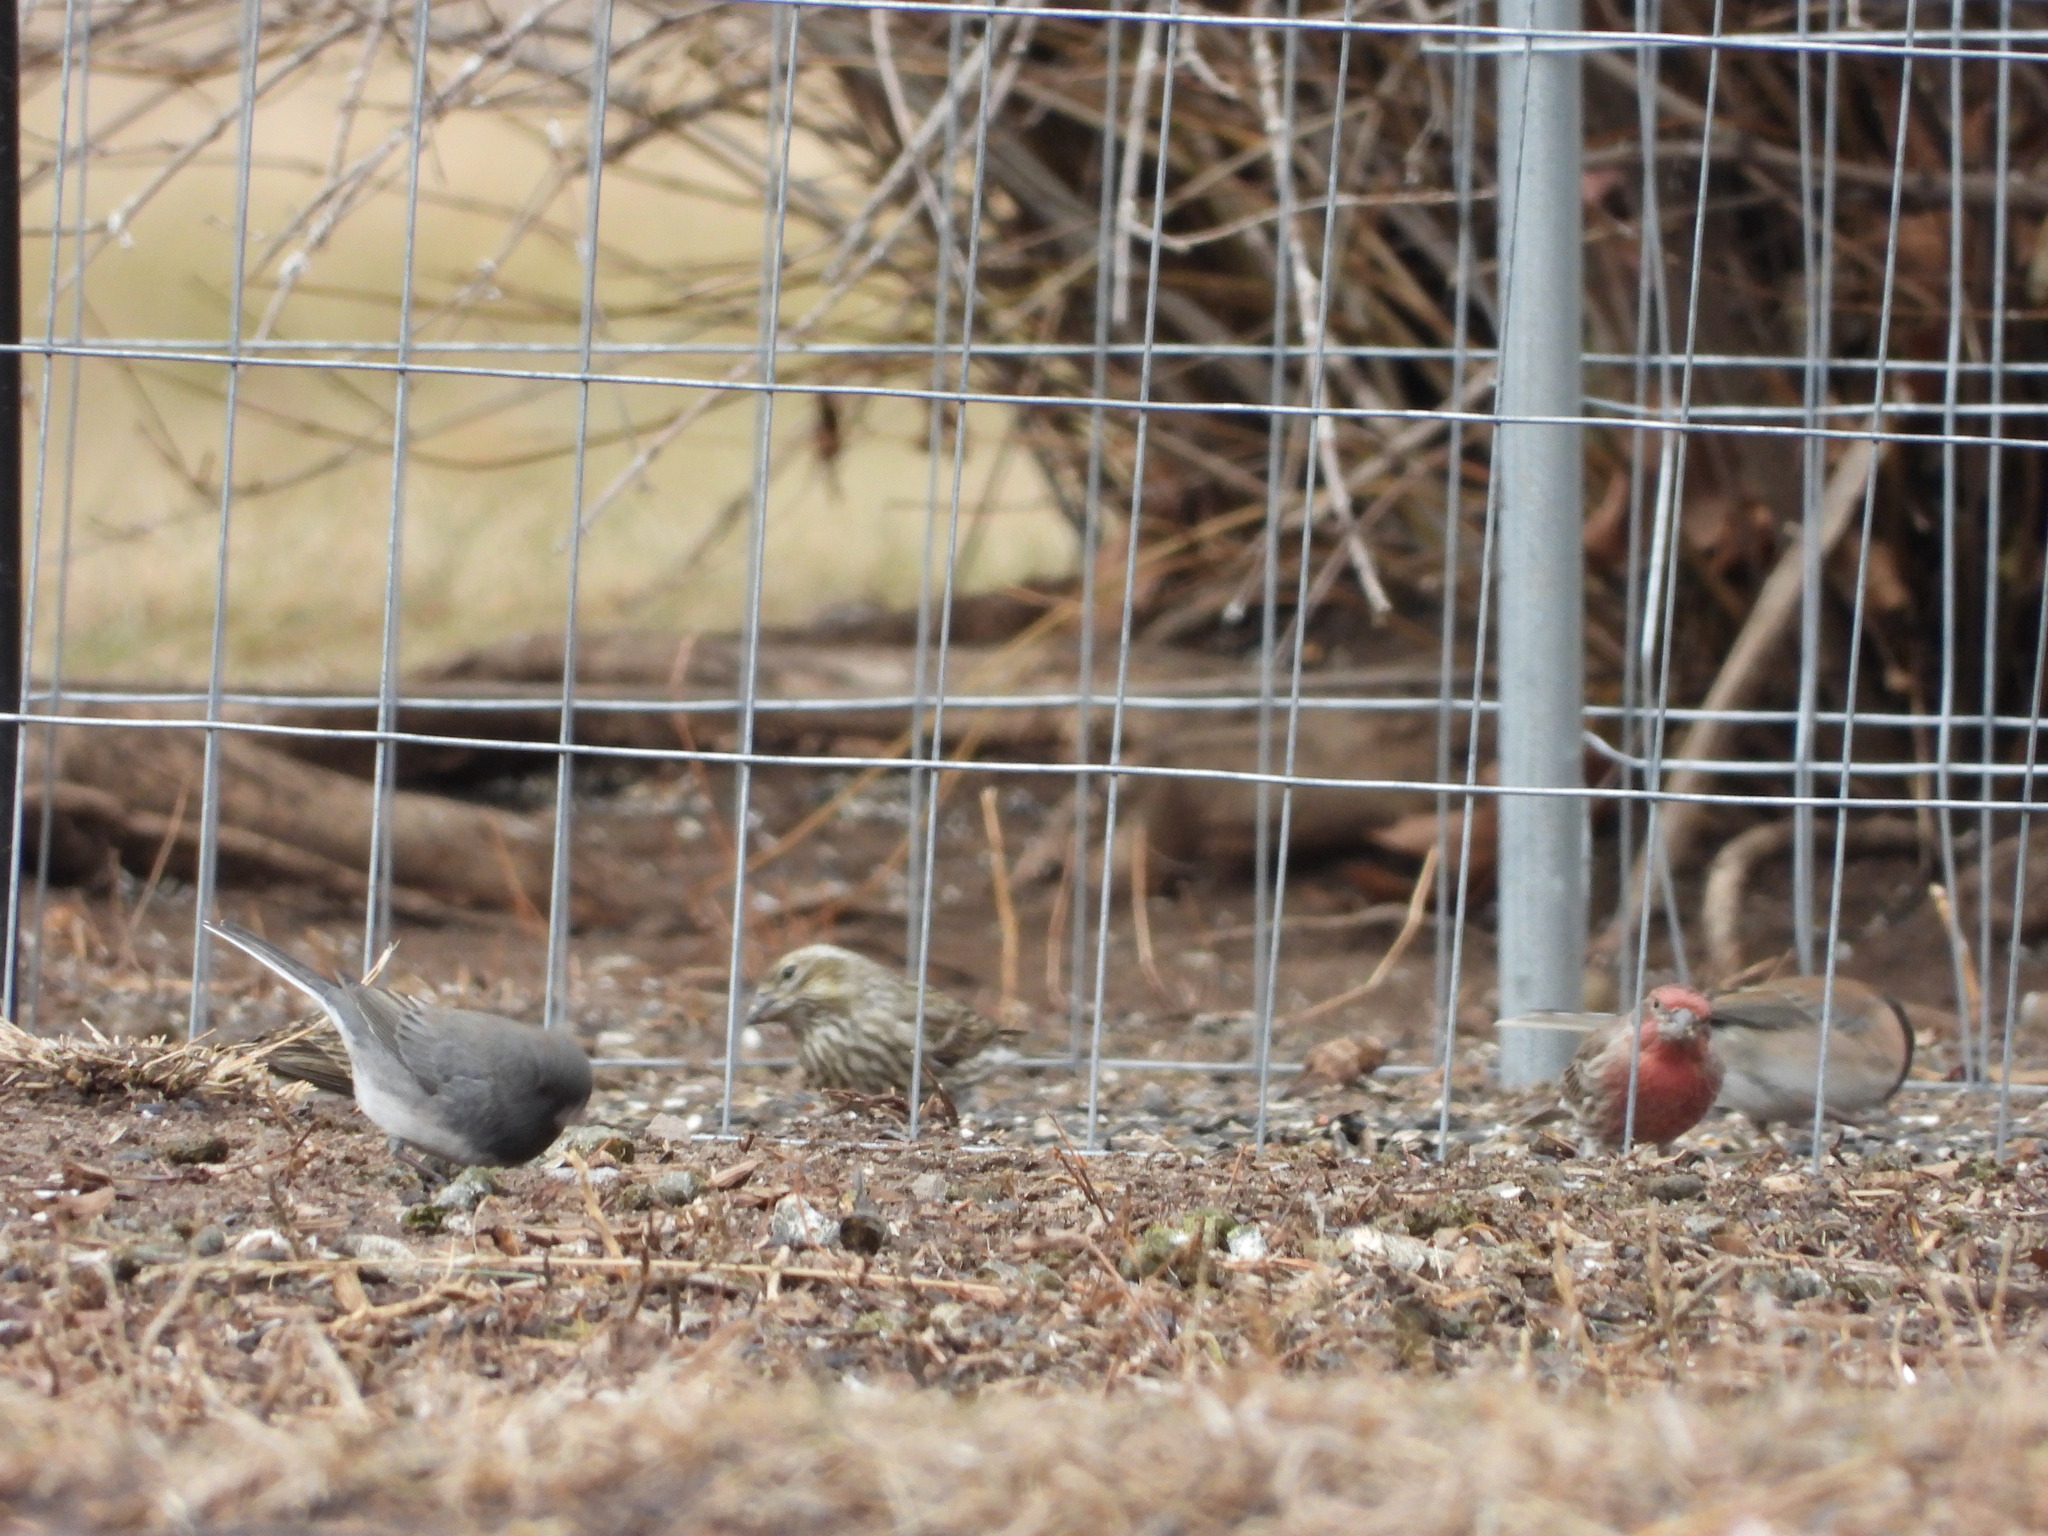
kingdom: Animalia
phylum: Chordata
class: Aves
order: Passeriformes
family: Fringillidae
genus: Haemorhous
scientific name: Haemorhous cassinii
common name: Cassin's finch
